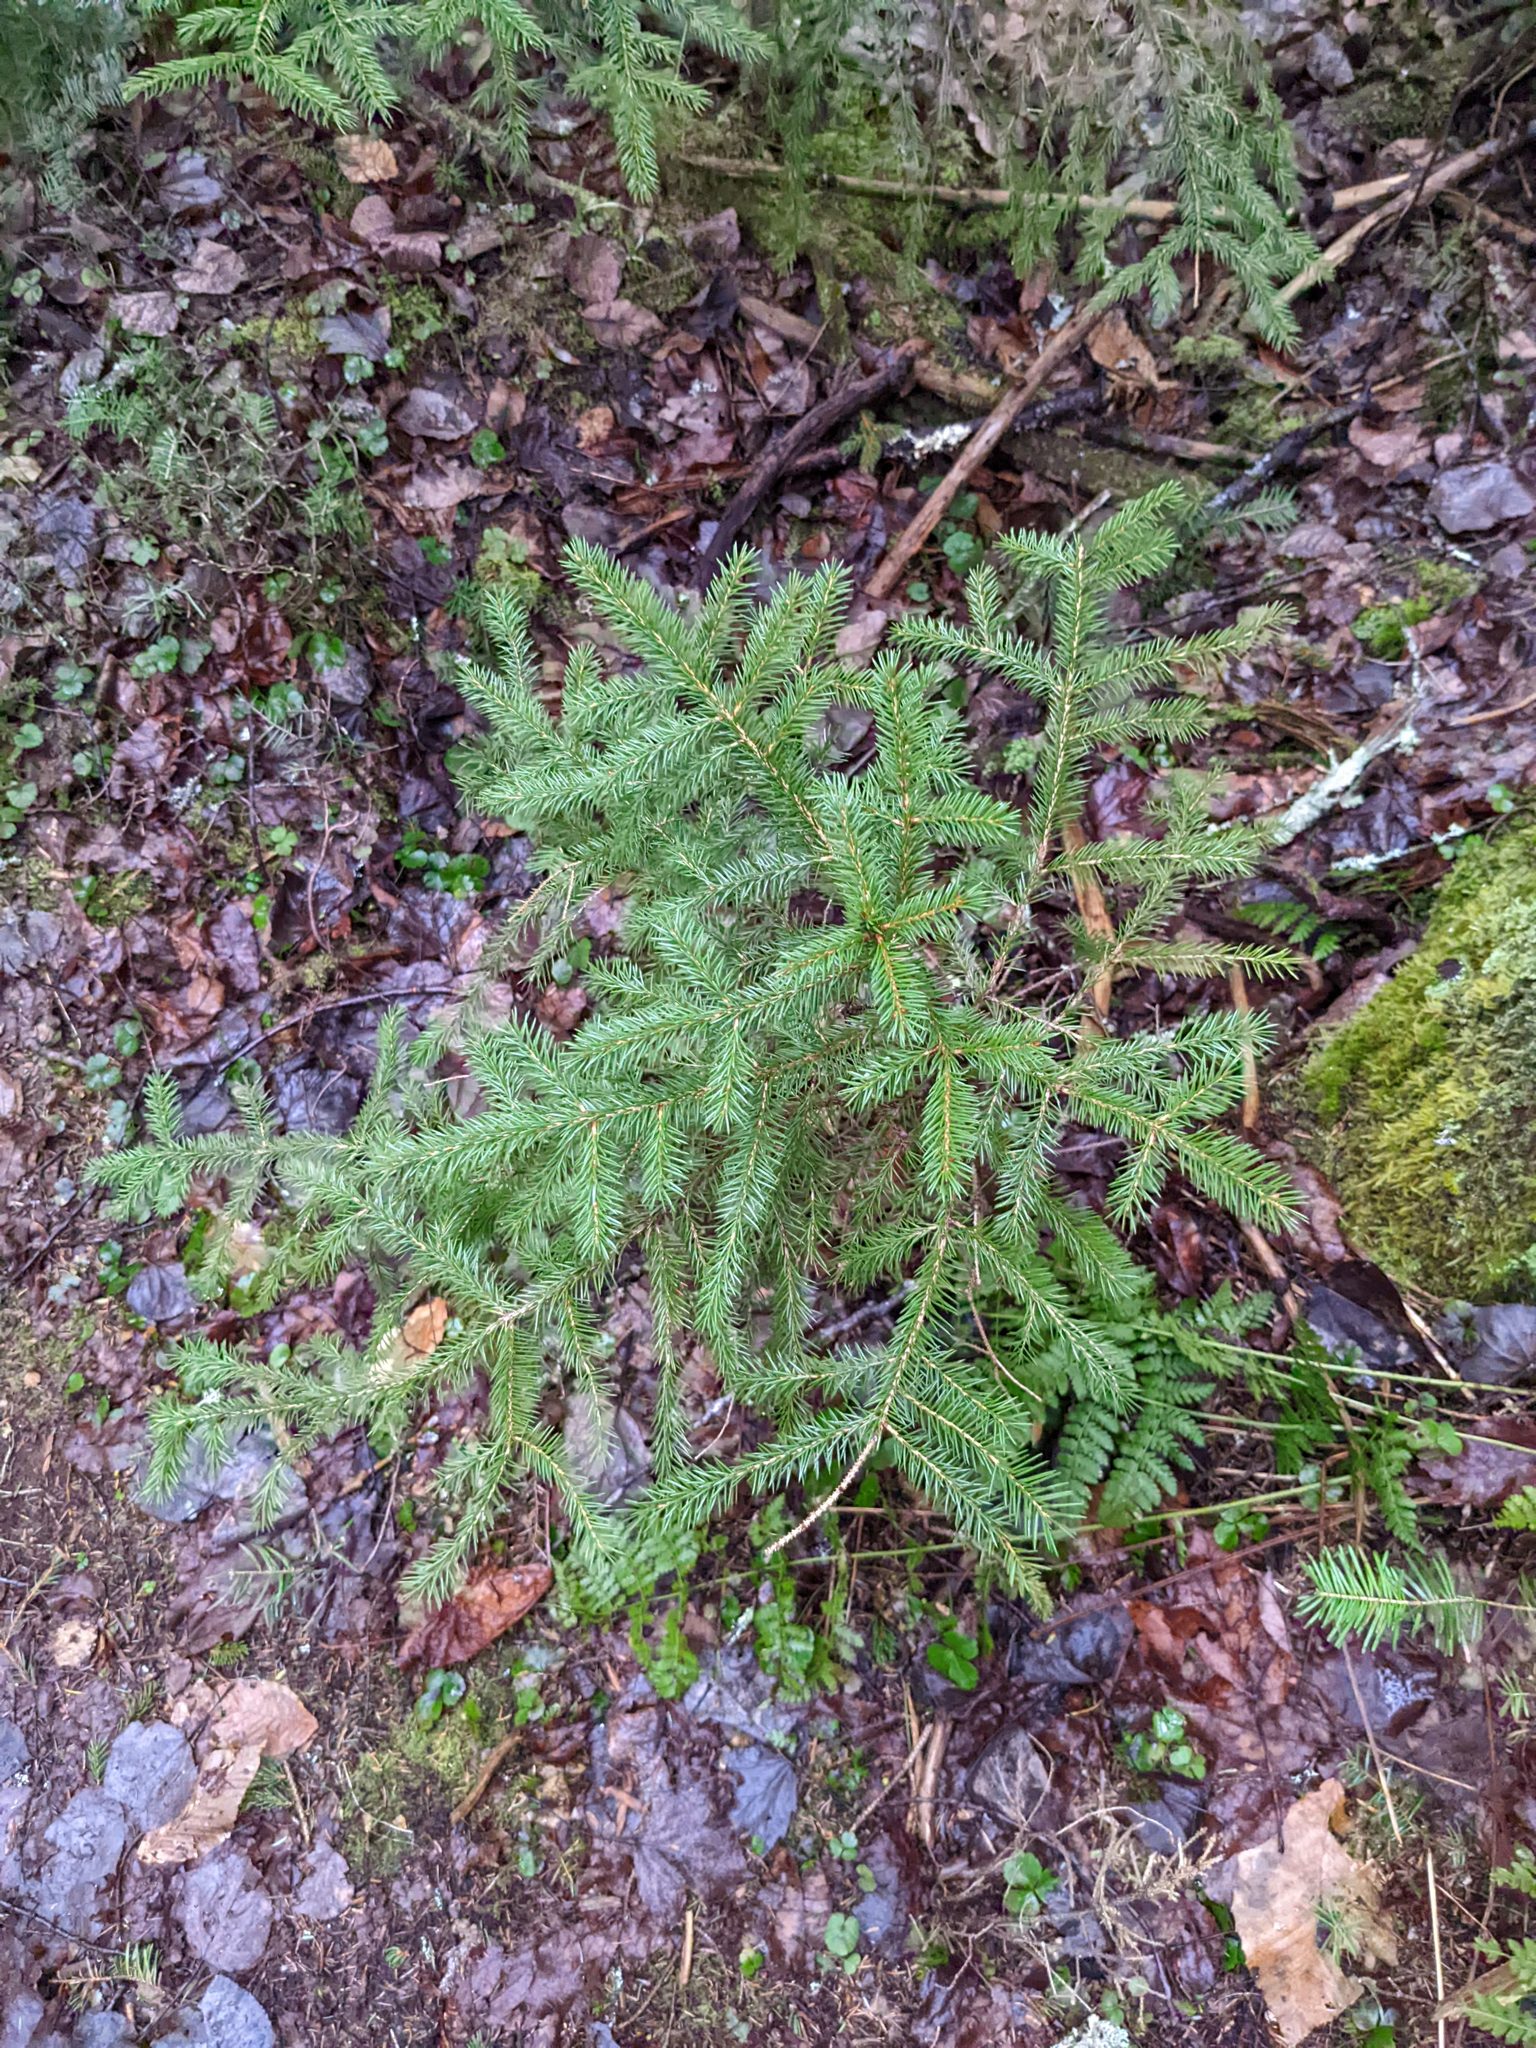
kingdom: Plantae
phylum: Tracheophyta
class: Pinopsida
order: Pinales
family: Pinaceae
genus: Picea
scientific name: Picea rubens
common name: Red spruce
